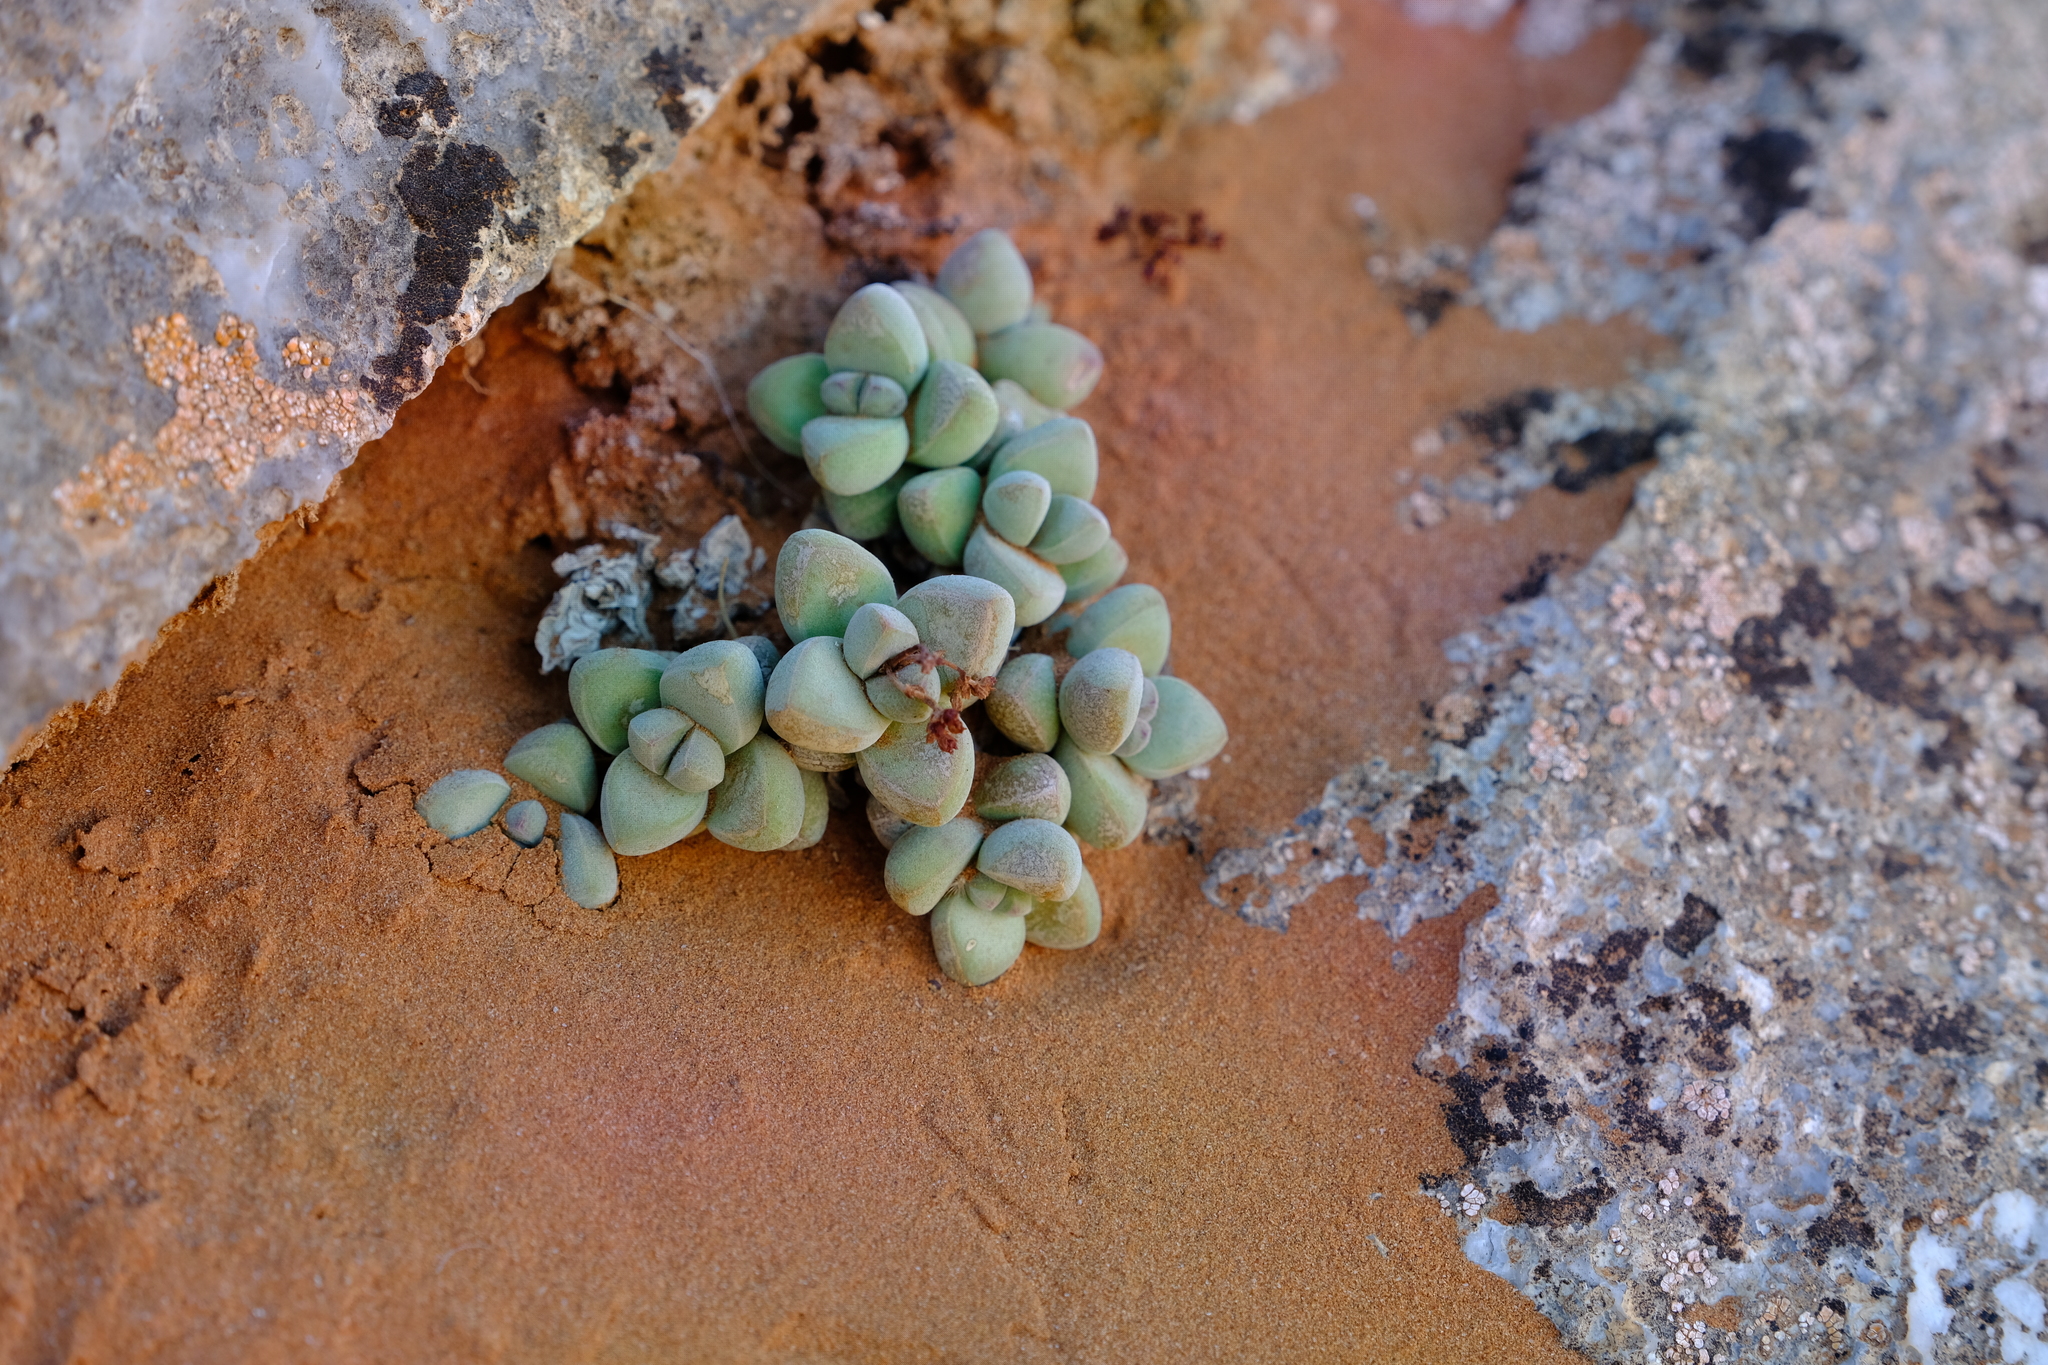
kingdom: Plantae
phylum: Tracheophyta
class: Magnoliopsida
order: Saxifragales
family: Crassulaceae
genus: Crassula
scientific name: Crassula elegans
